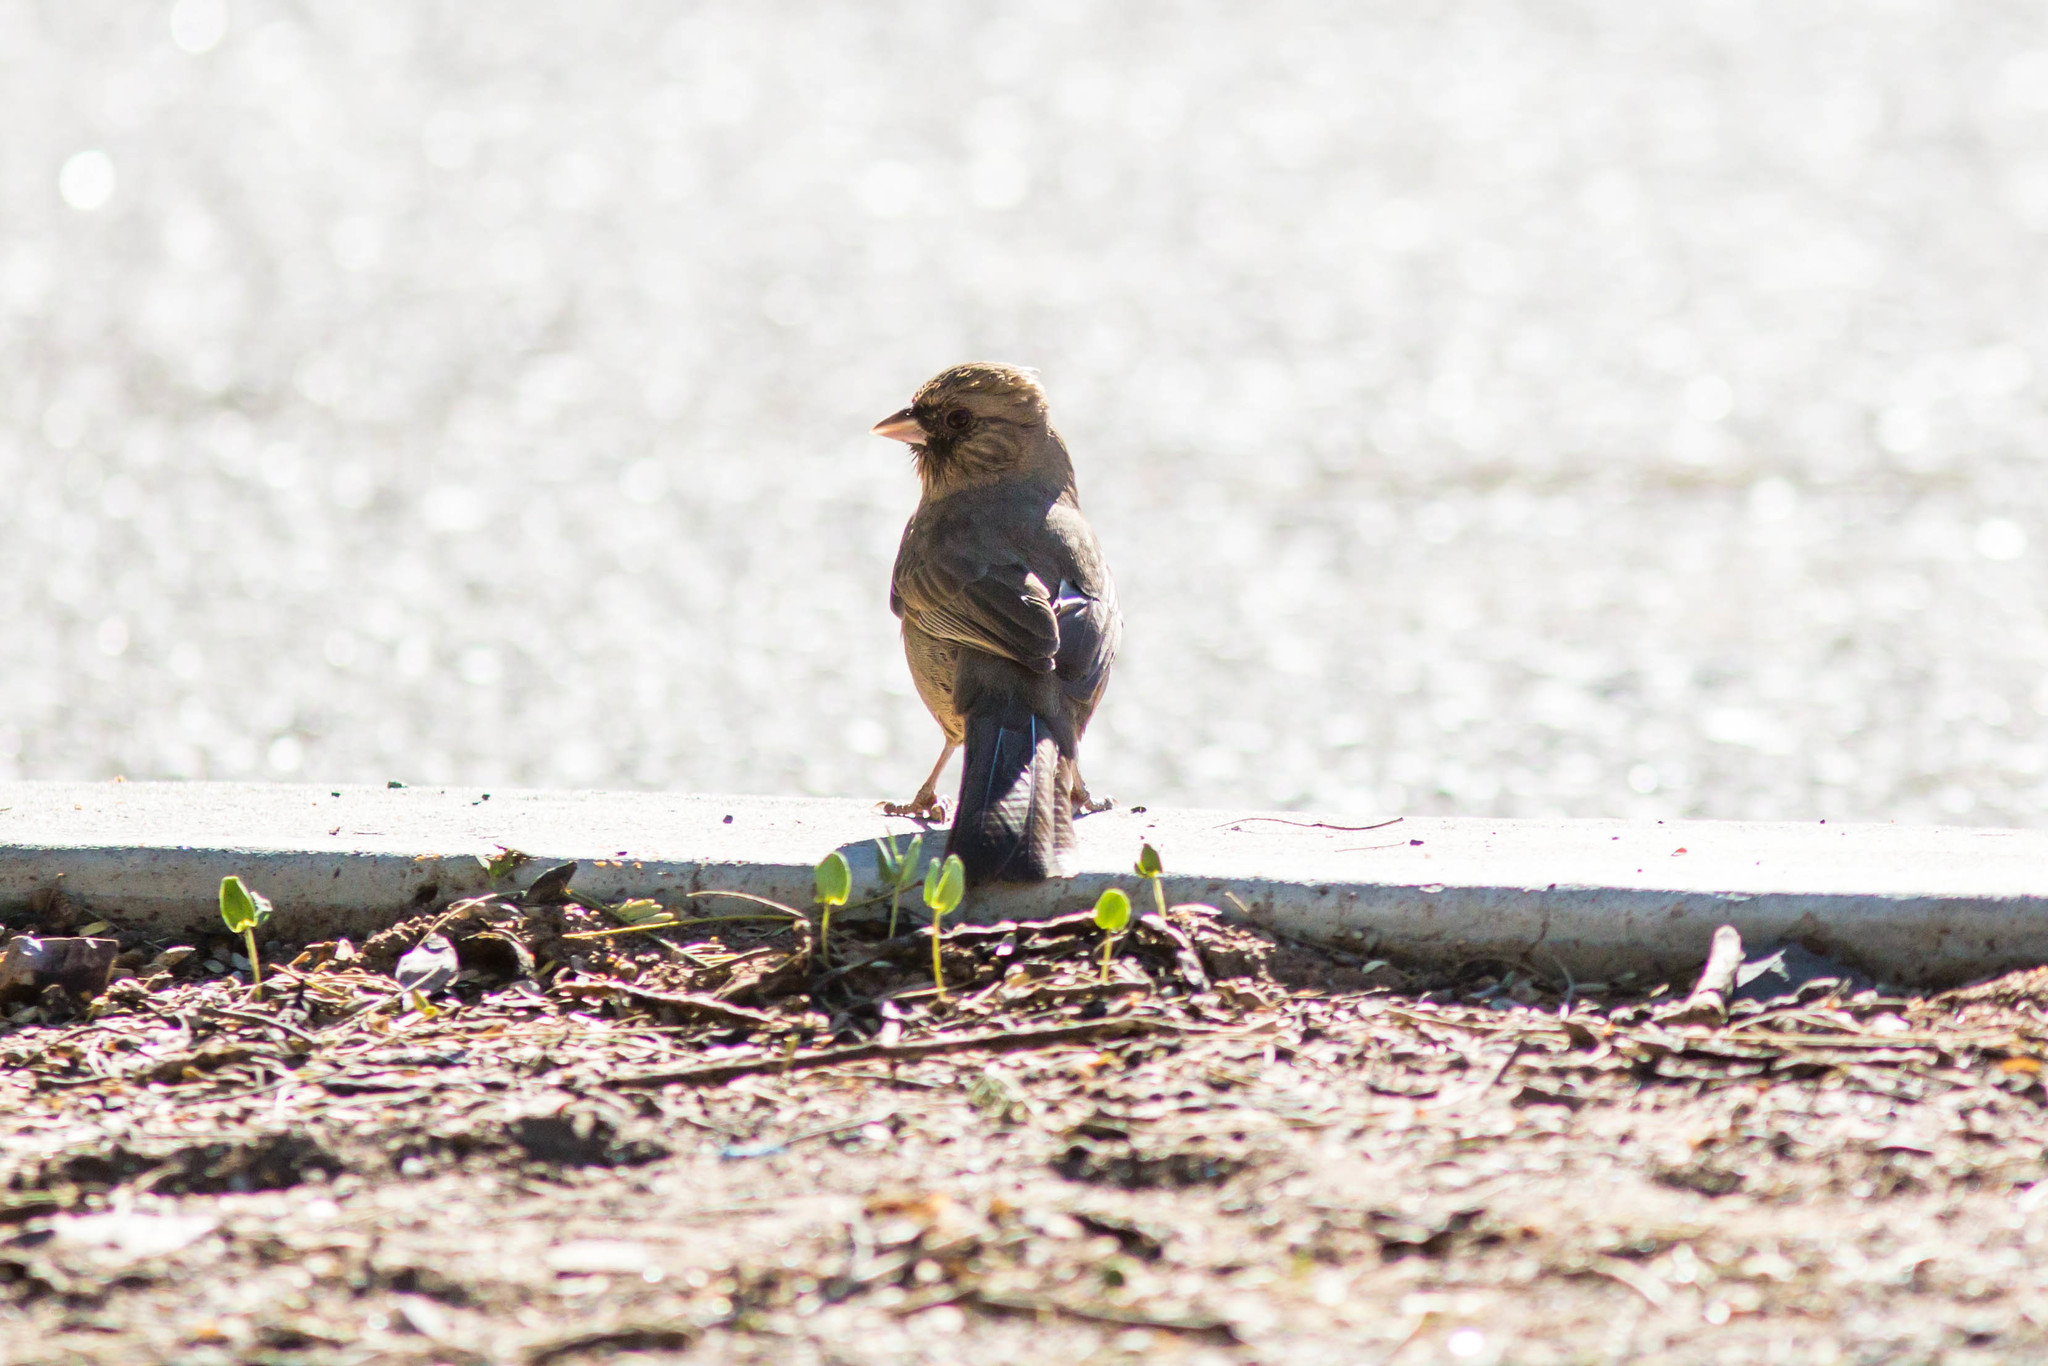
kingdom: Animalia
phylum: Chordata
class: Aves
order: Passeriformes
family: Passerellidae
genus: Melozone
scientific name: Melozone aberti
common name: Abert's towhee
